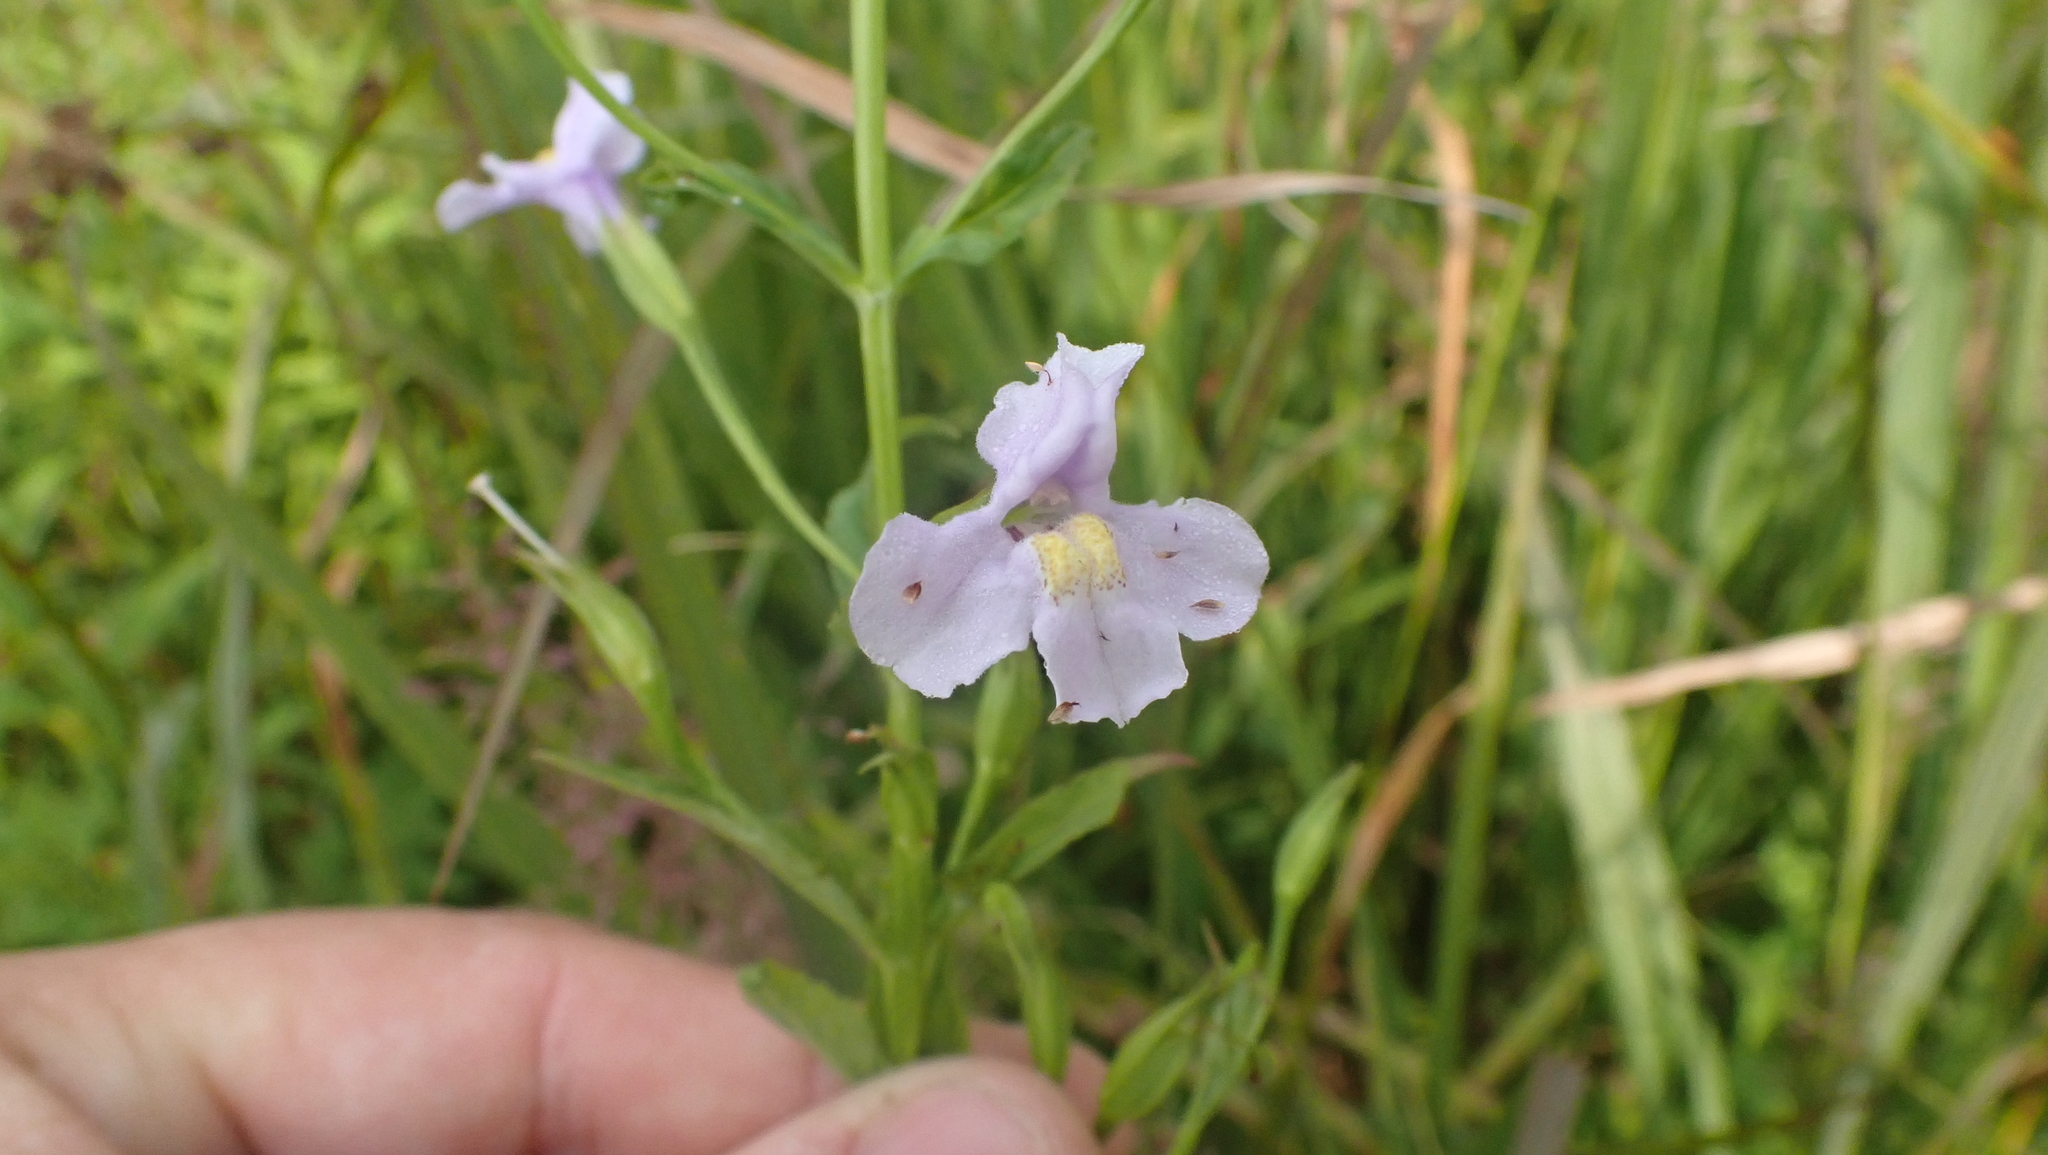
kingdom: Plantae
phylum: Tracheophyta
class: Magnoliopsida
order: Lamiales
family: Phrymaceae
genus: Mimulus
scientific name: Mimulus ringens
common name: Allegheny monkeyflower
